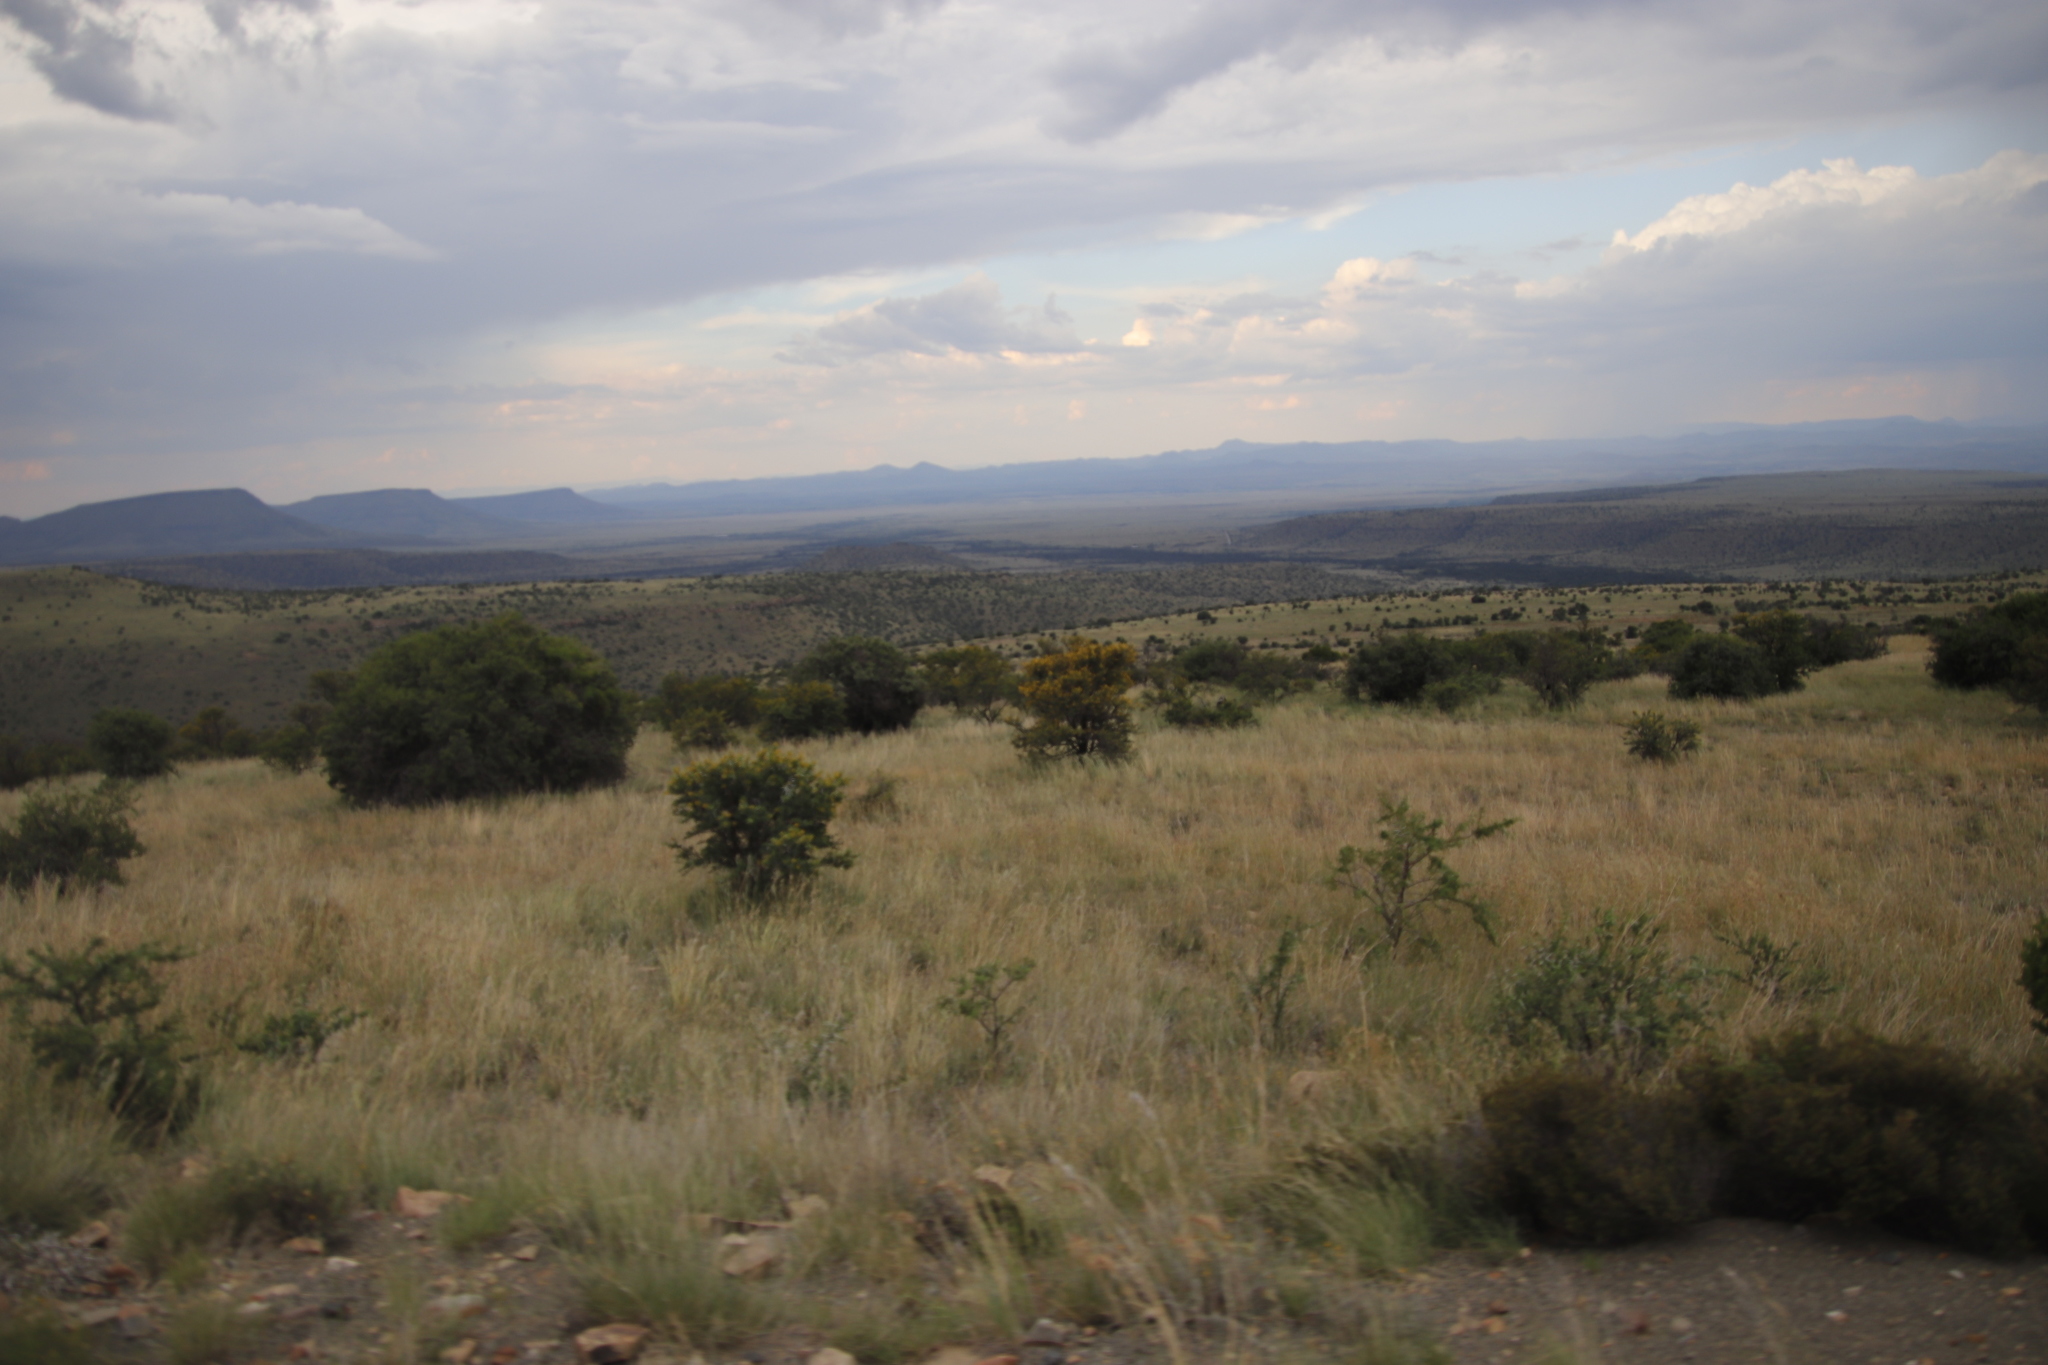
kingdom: Plantae
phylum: Tracheophyta
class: Magnoliopsida
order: Fabales
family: Fabaceae
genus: Vachellia
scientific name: Vachellia karroo
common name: Sweet thorn
